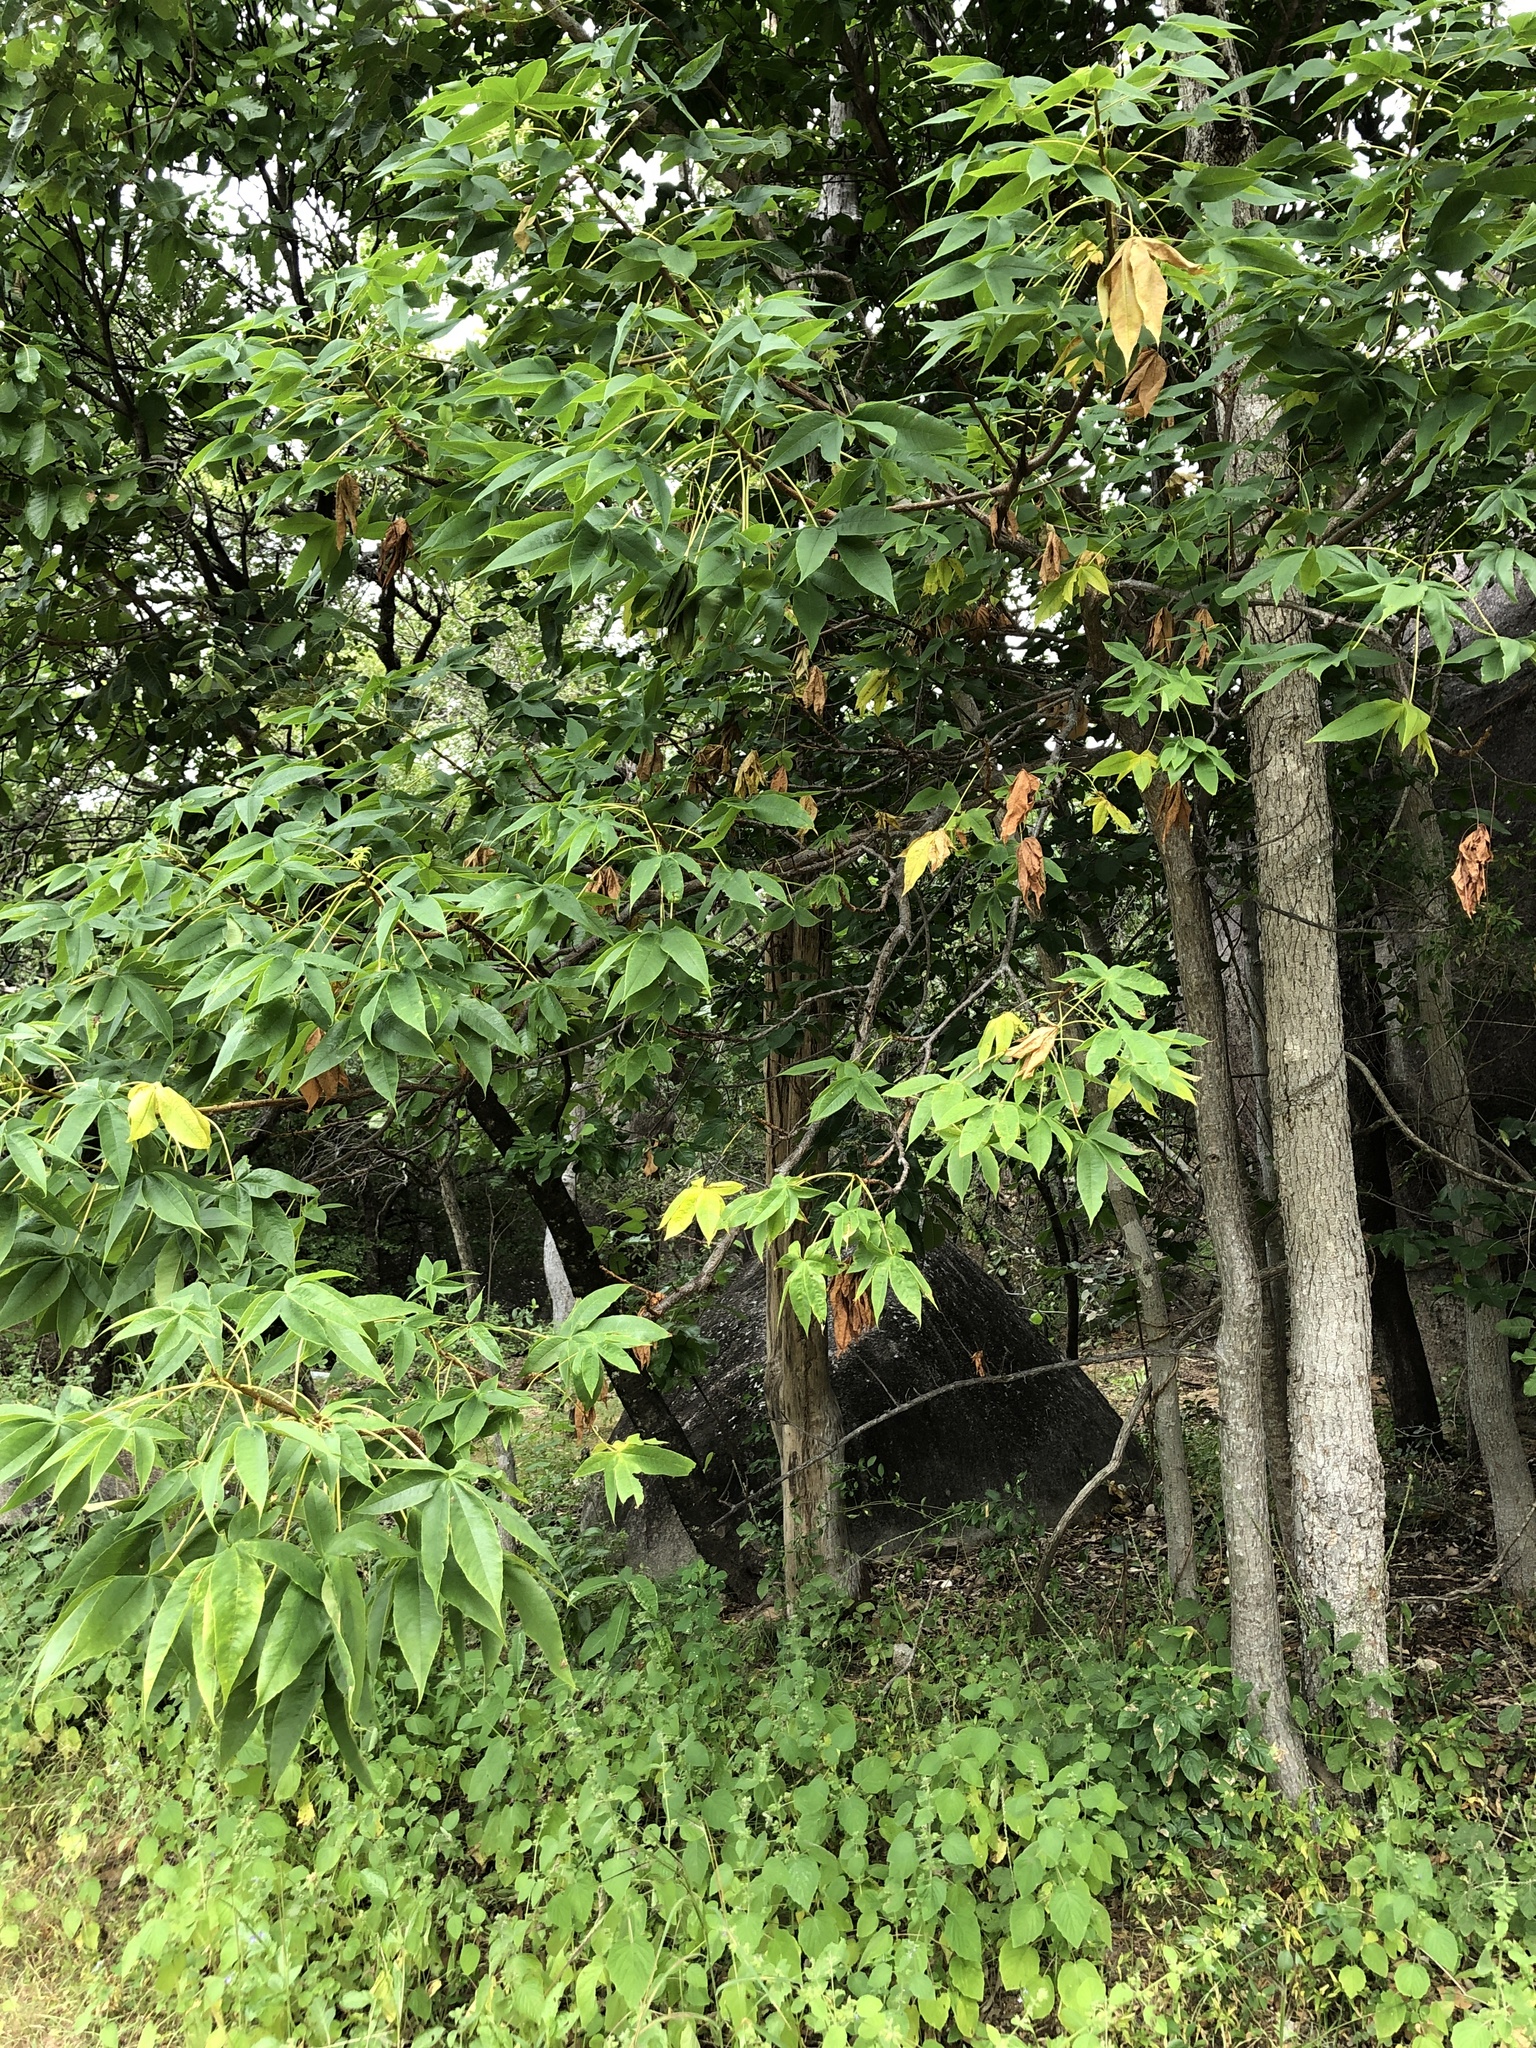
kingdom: Plantae
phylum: Tracheophyta
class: Magnoliopsida
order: Malvales
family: Cochlospermaceae
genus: Cochlospermum
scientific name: Cochlospermum gillivraei
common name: Cottontree
